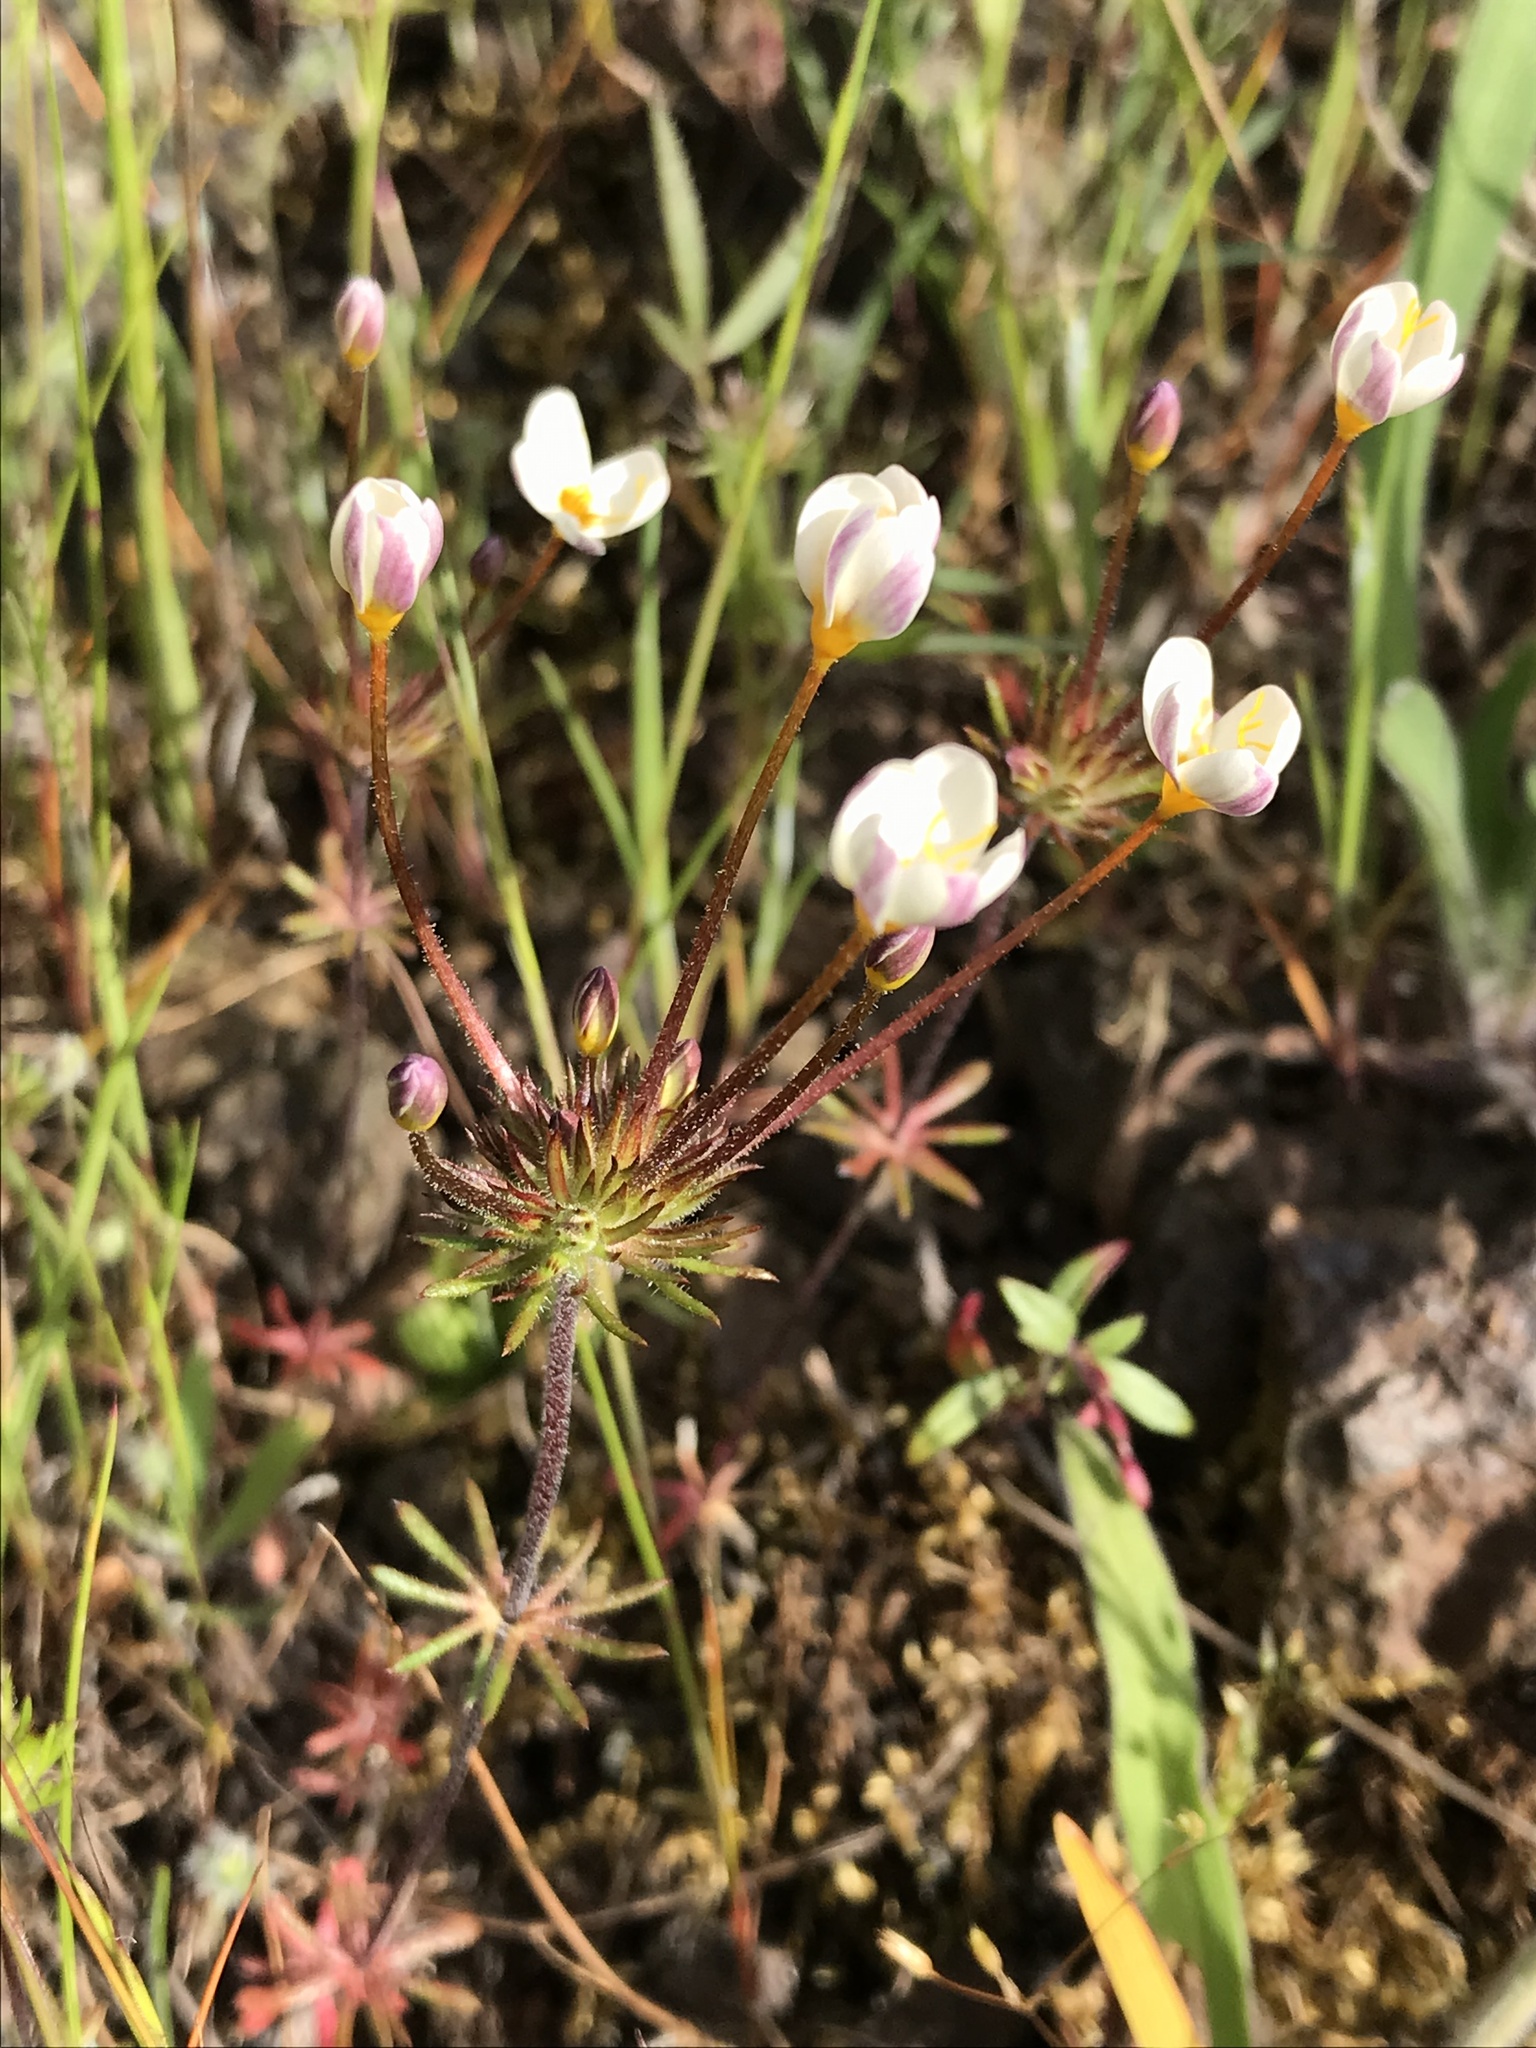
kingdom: Plantae
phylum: Tracheophyta
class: Magnoliopsida
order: Ericales
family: Polemoniaceae
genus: Leptosiphon
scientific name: Leptosiphon parviflorus
